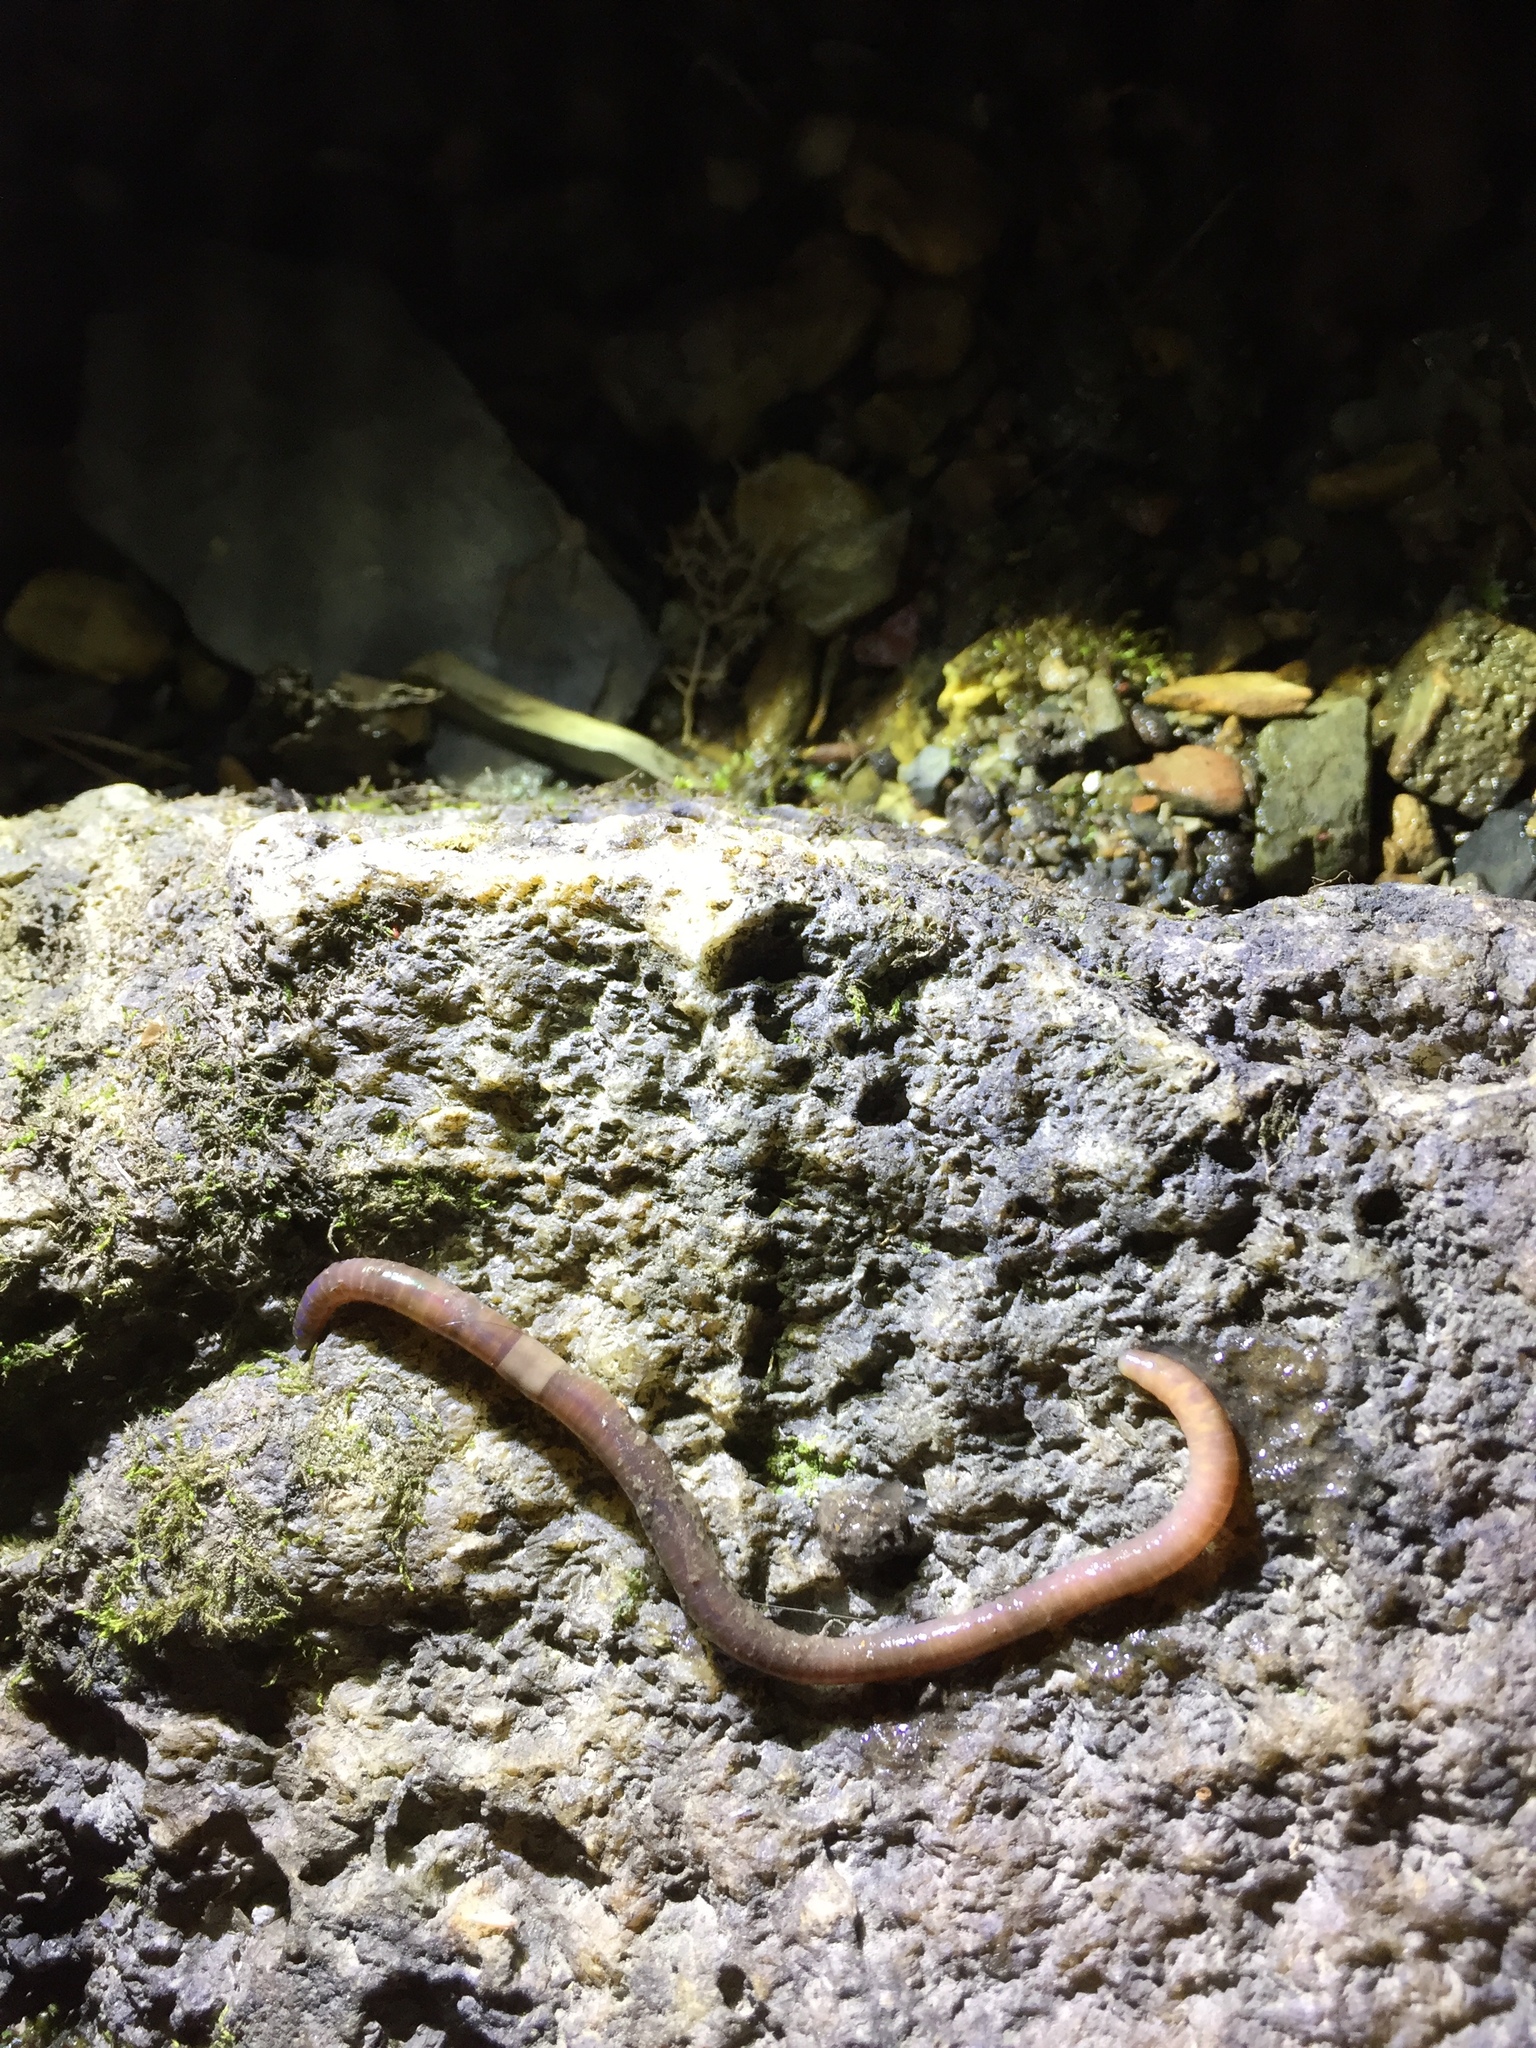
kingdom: Animalia
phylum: Annelida
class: Clitellata
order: Crassiclitellata
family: Lumbricidae
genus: Lumbricus
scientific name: Lumbricus terrestris
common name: Common earthworm
